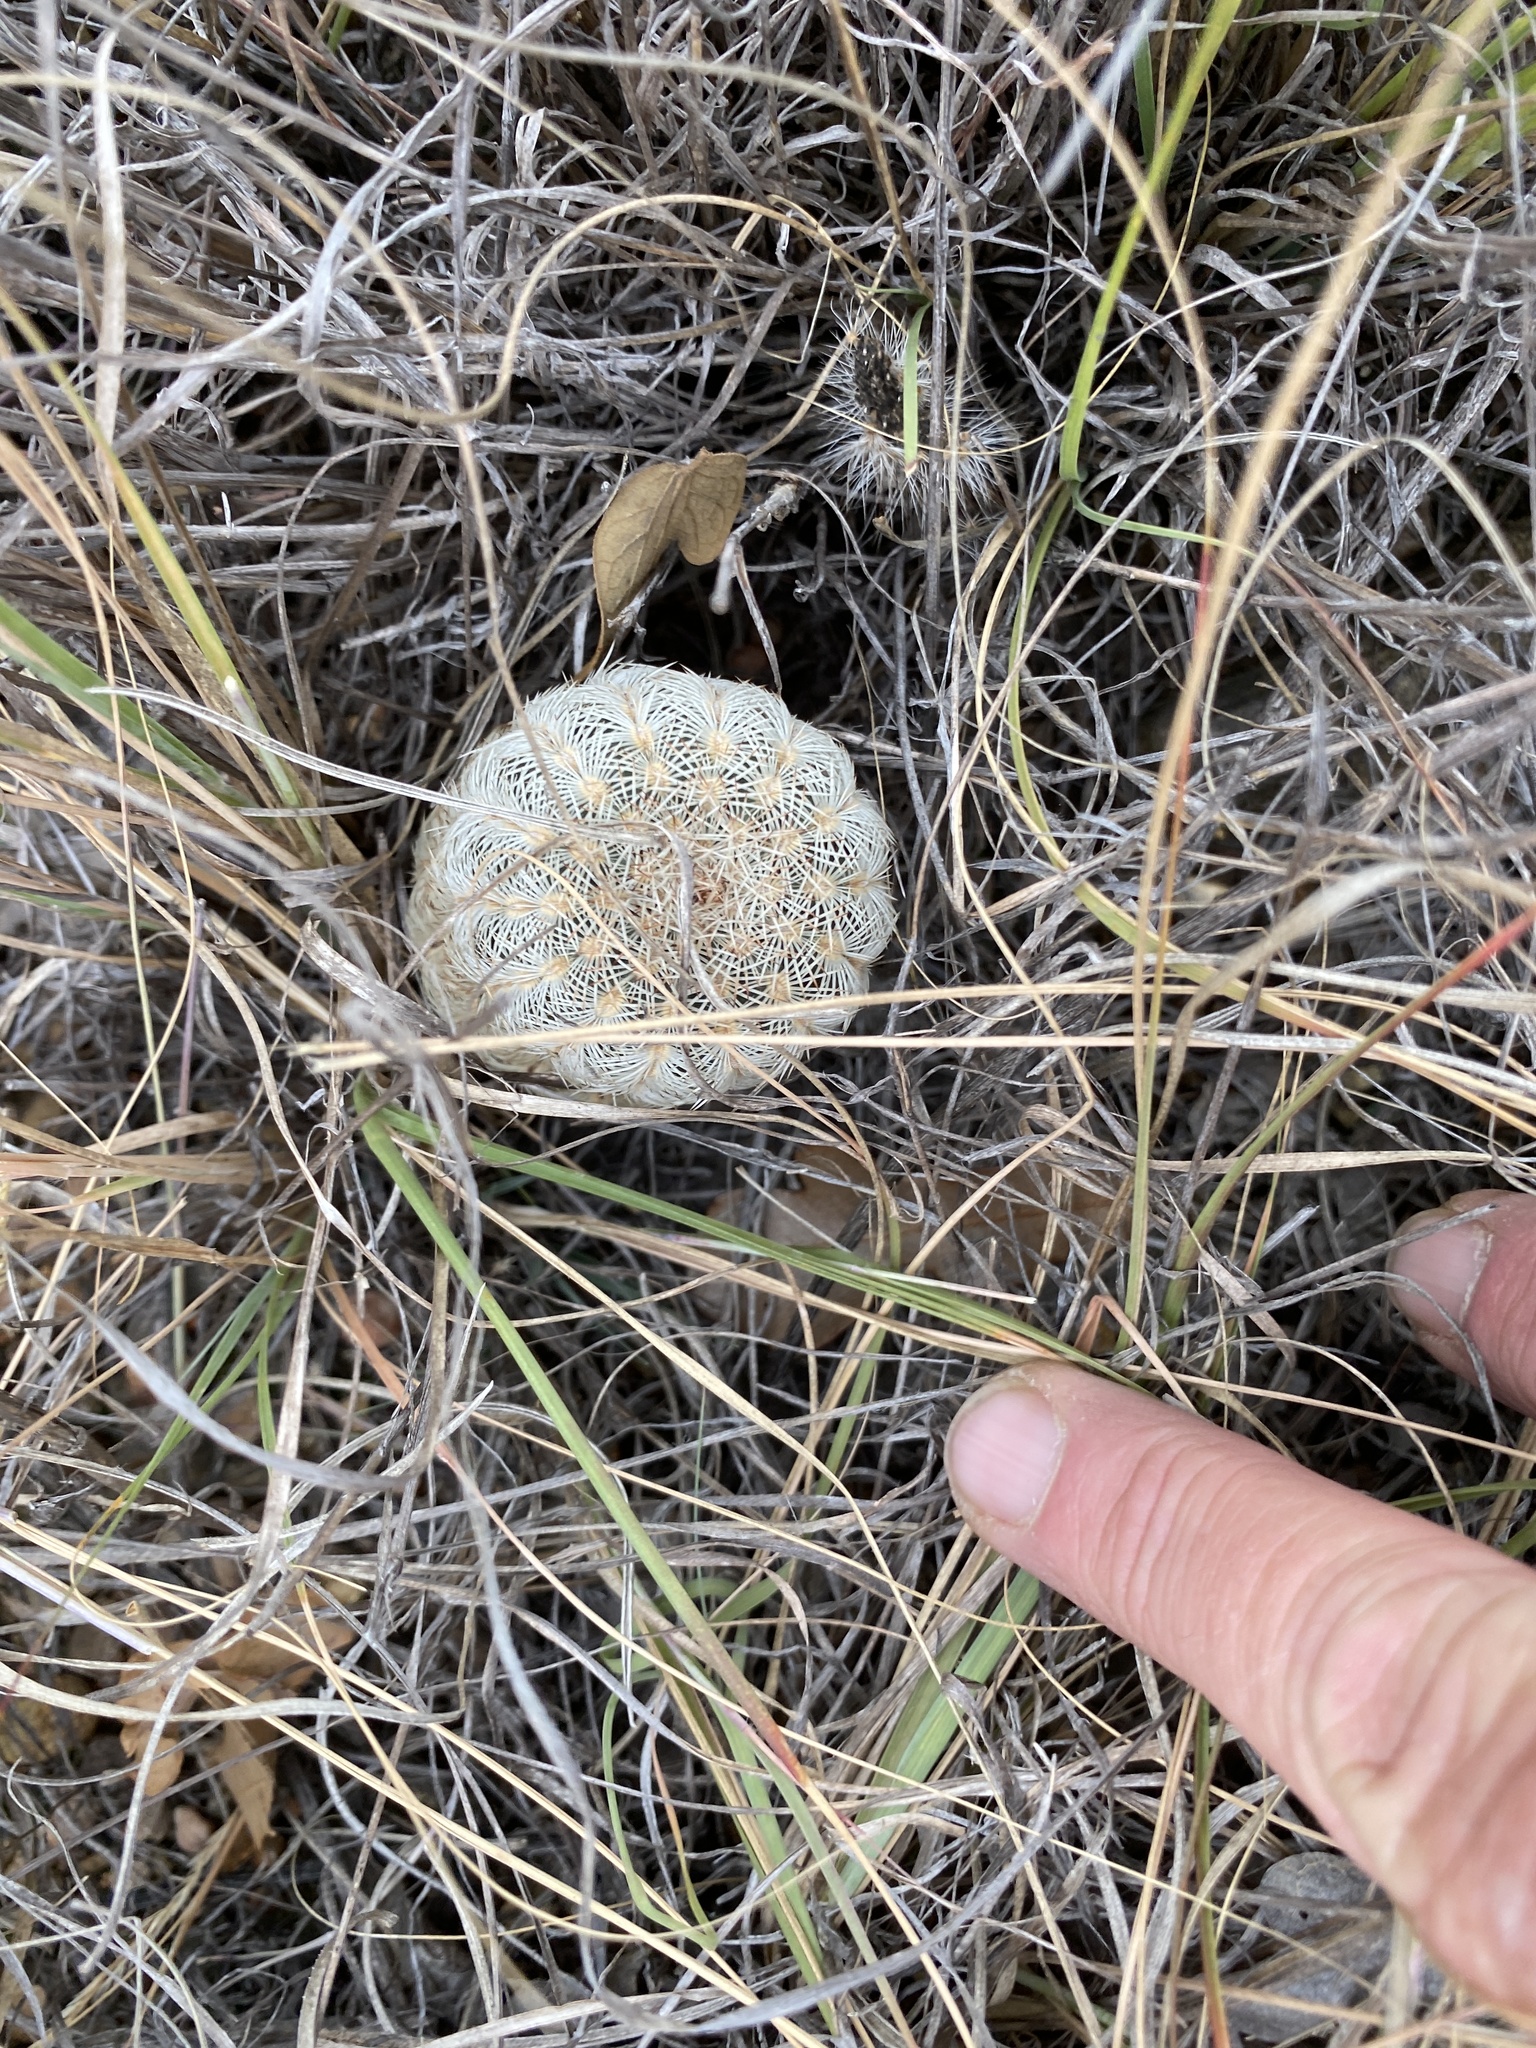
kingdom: Plantae
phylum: Tracheophyta
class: Magnoliopsida
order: Caryophyllales
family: Cactaceae
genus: Echinocereus
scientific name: Echinocereus reichenbachii
